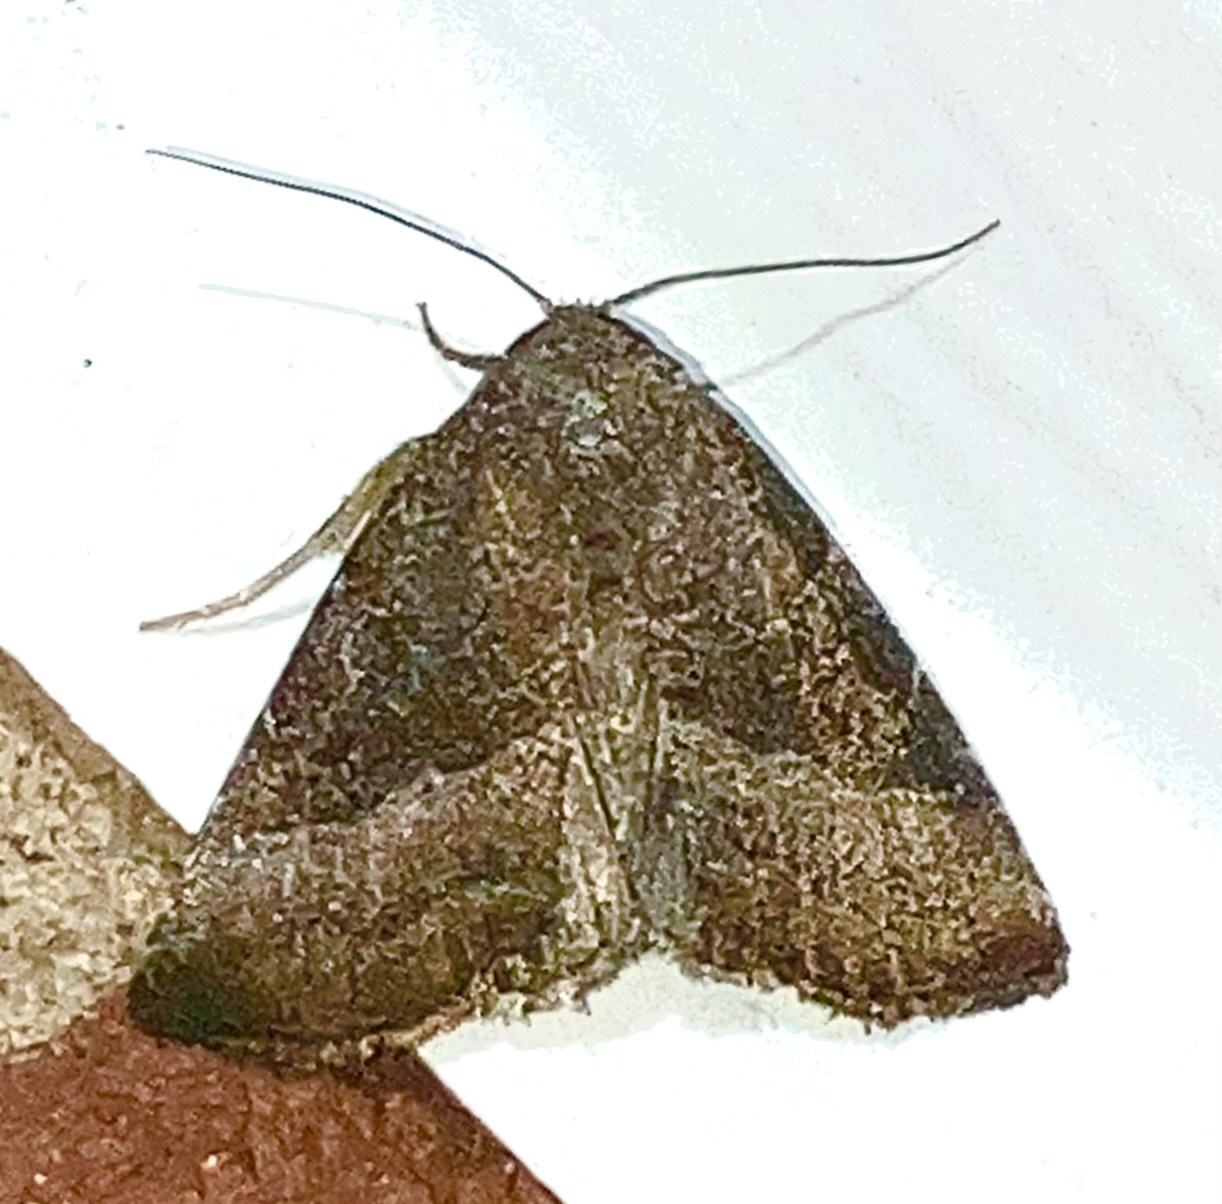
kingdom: Animalia
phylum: Arthropoda
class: Insecta
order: Lepidoptera
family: Noctuidae
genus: Ogdoconta
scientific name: Ogdoconta cinereola
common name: Common pinkband
